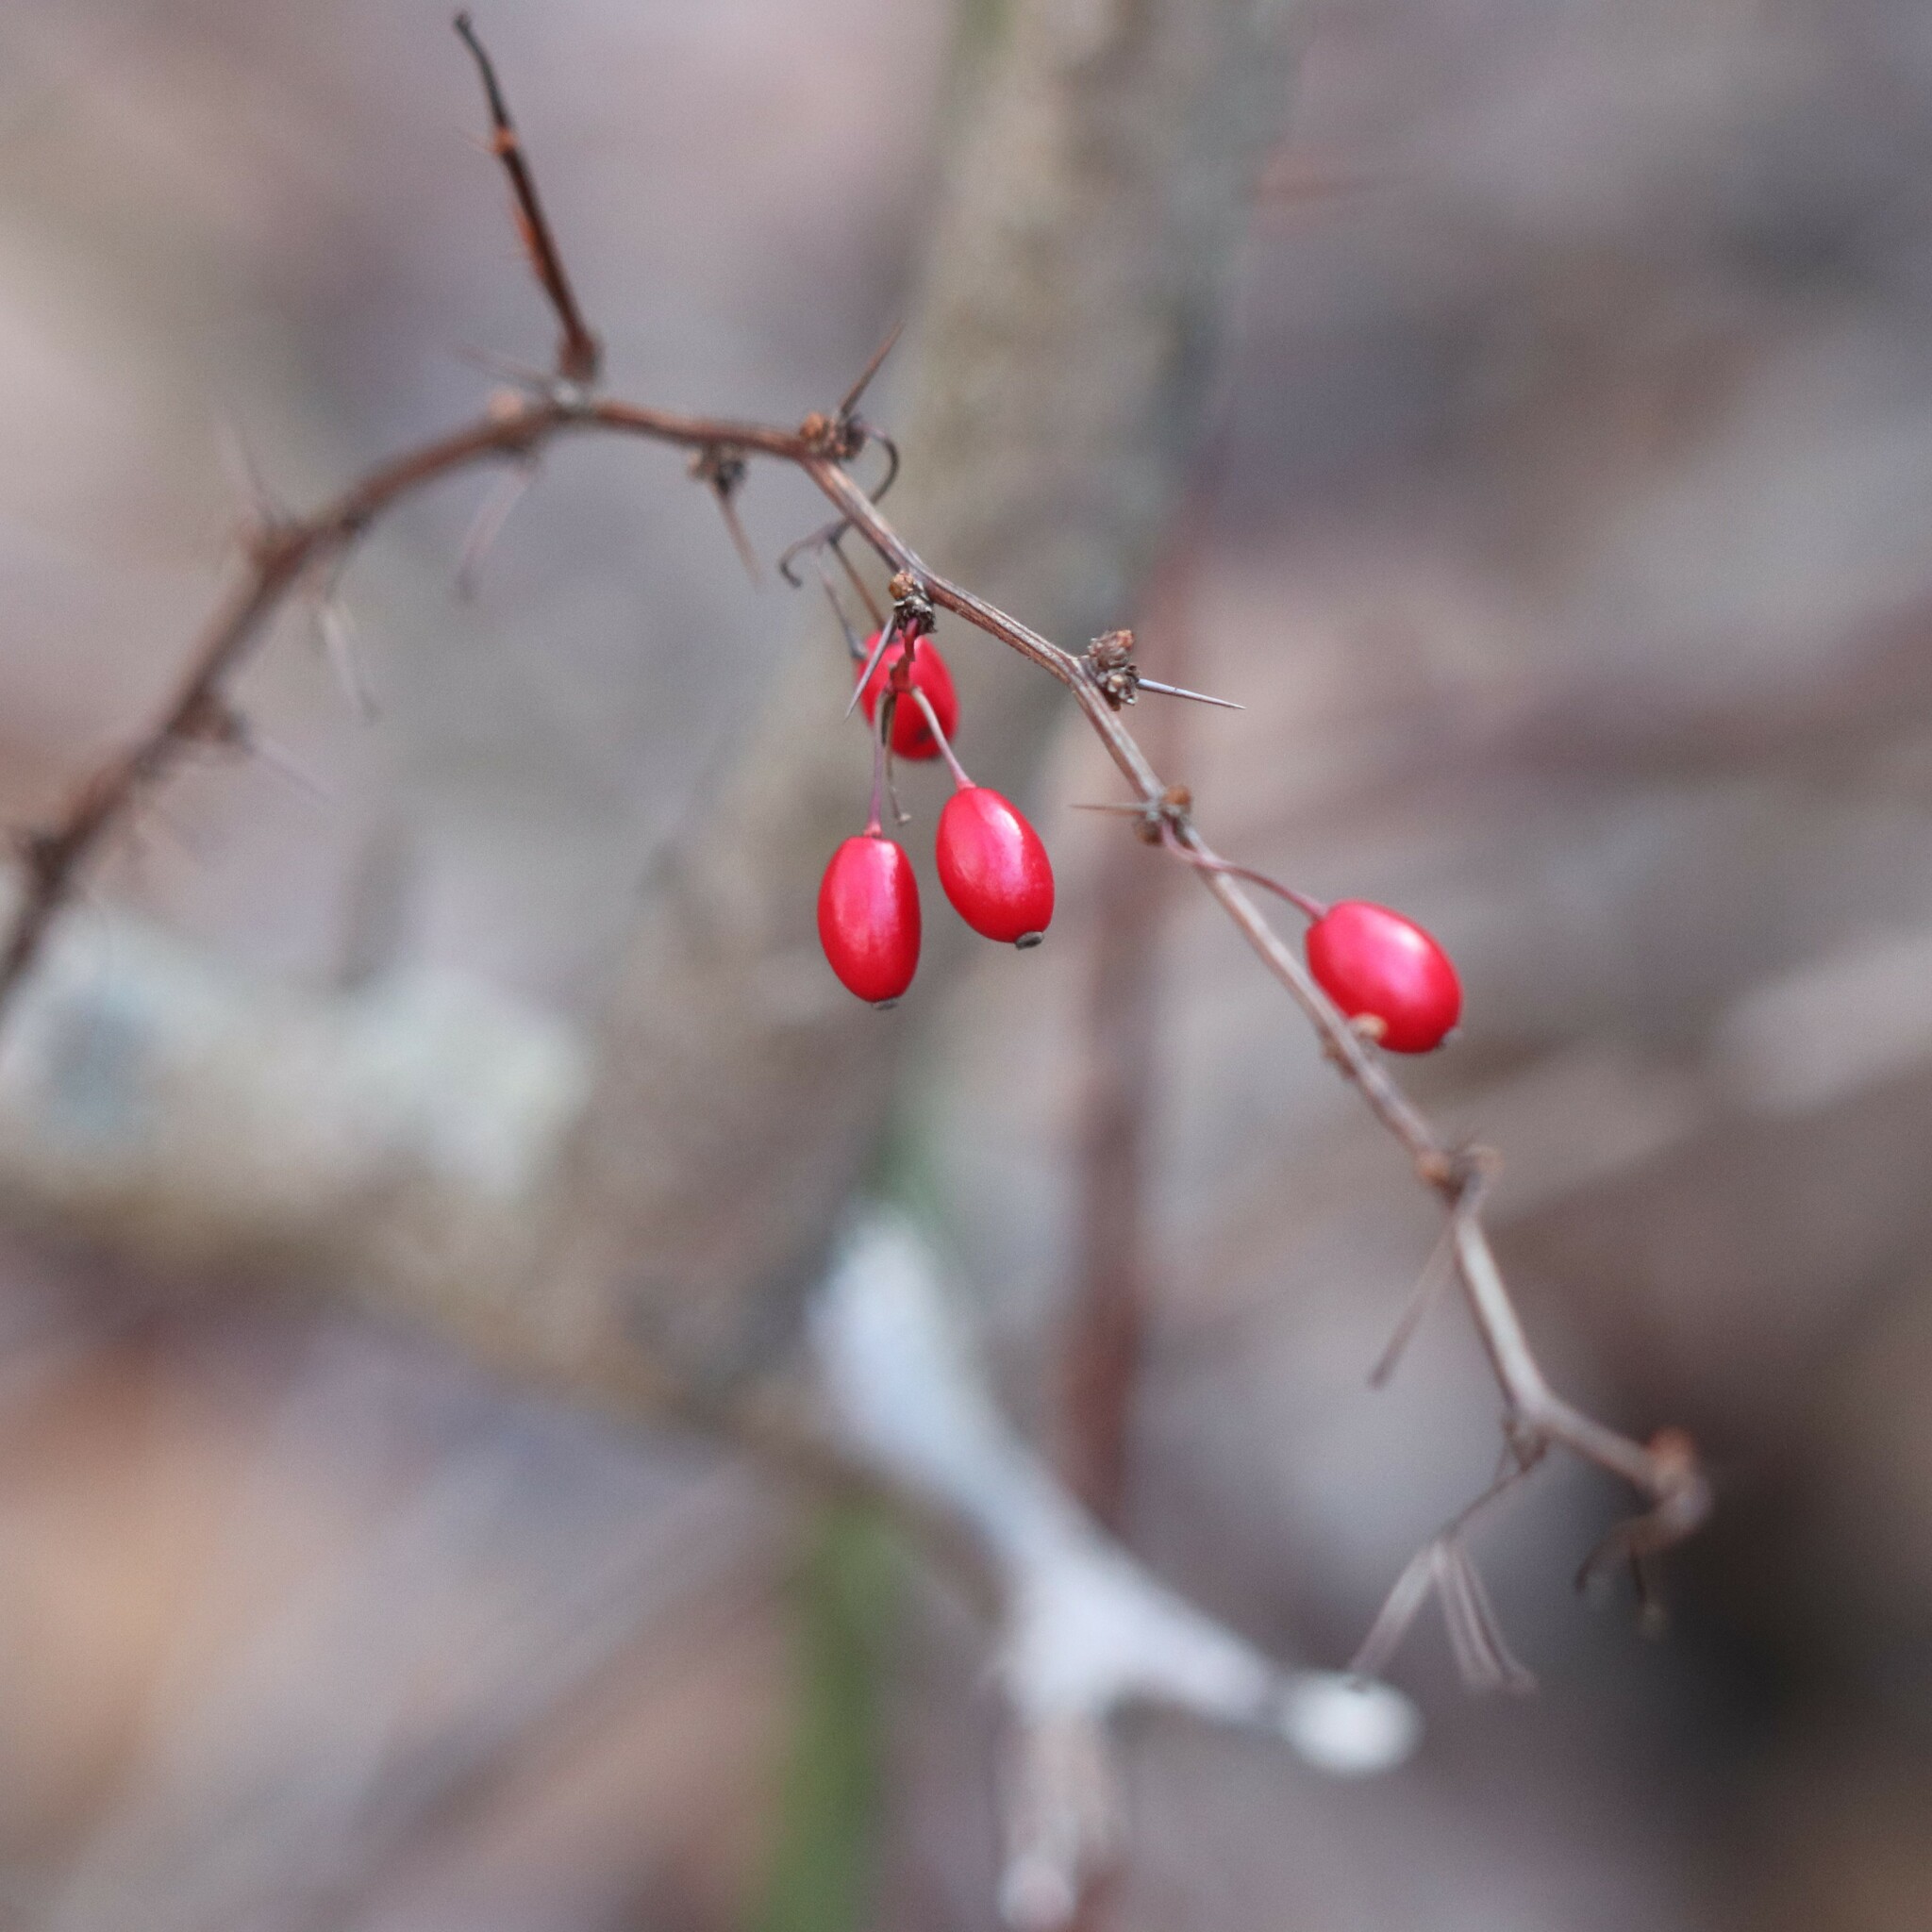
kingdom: Plantae
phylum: Tracheophyta
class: Magnoliopsida
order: Ranunculales
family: Berberidaceae
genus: Berberis
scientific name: Berberis thunbergii
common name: Japanese barberry
